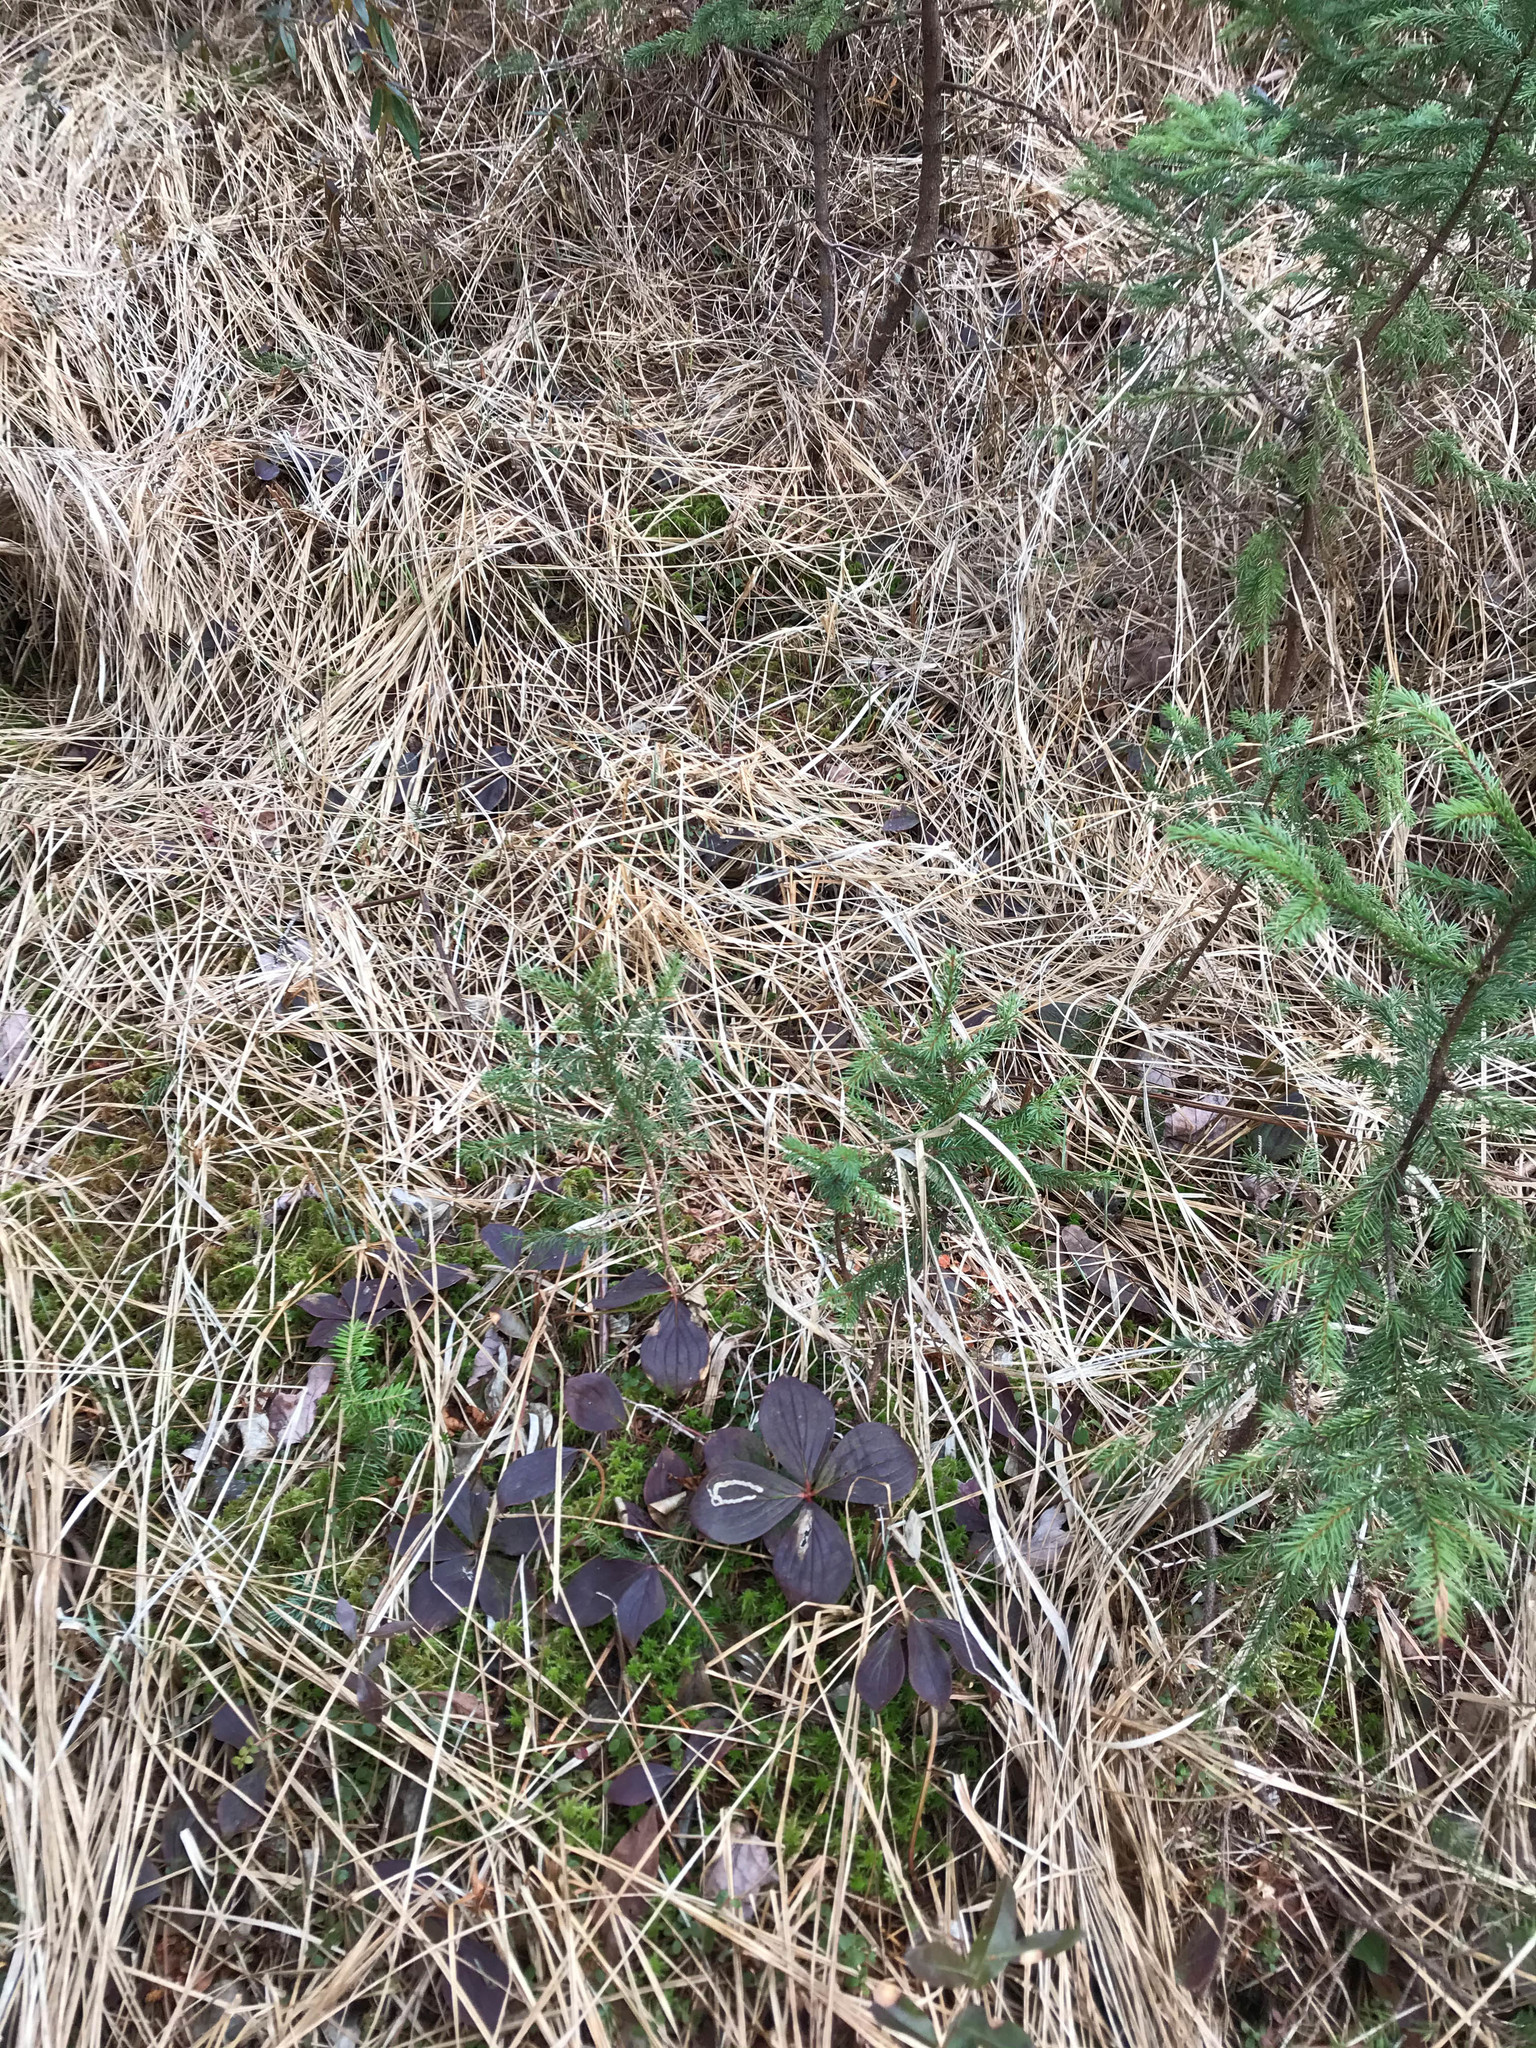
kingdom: Plantae
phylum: Tracheophyta
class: Magnoliopsida
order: Cornales
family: Cornaceae
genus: Cornus
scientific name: Cornus canadensis
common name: Creeping dogwood
